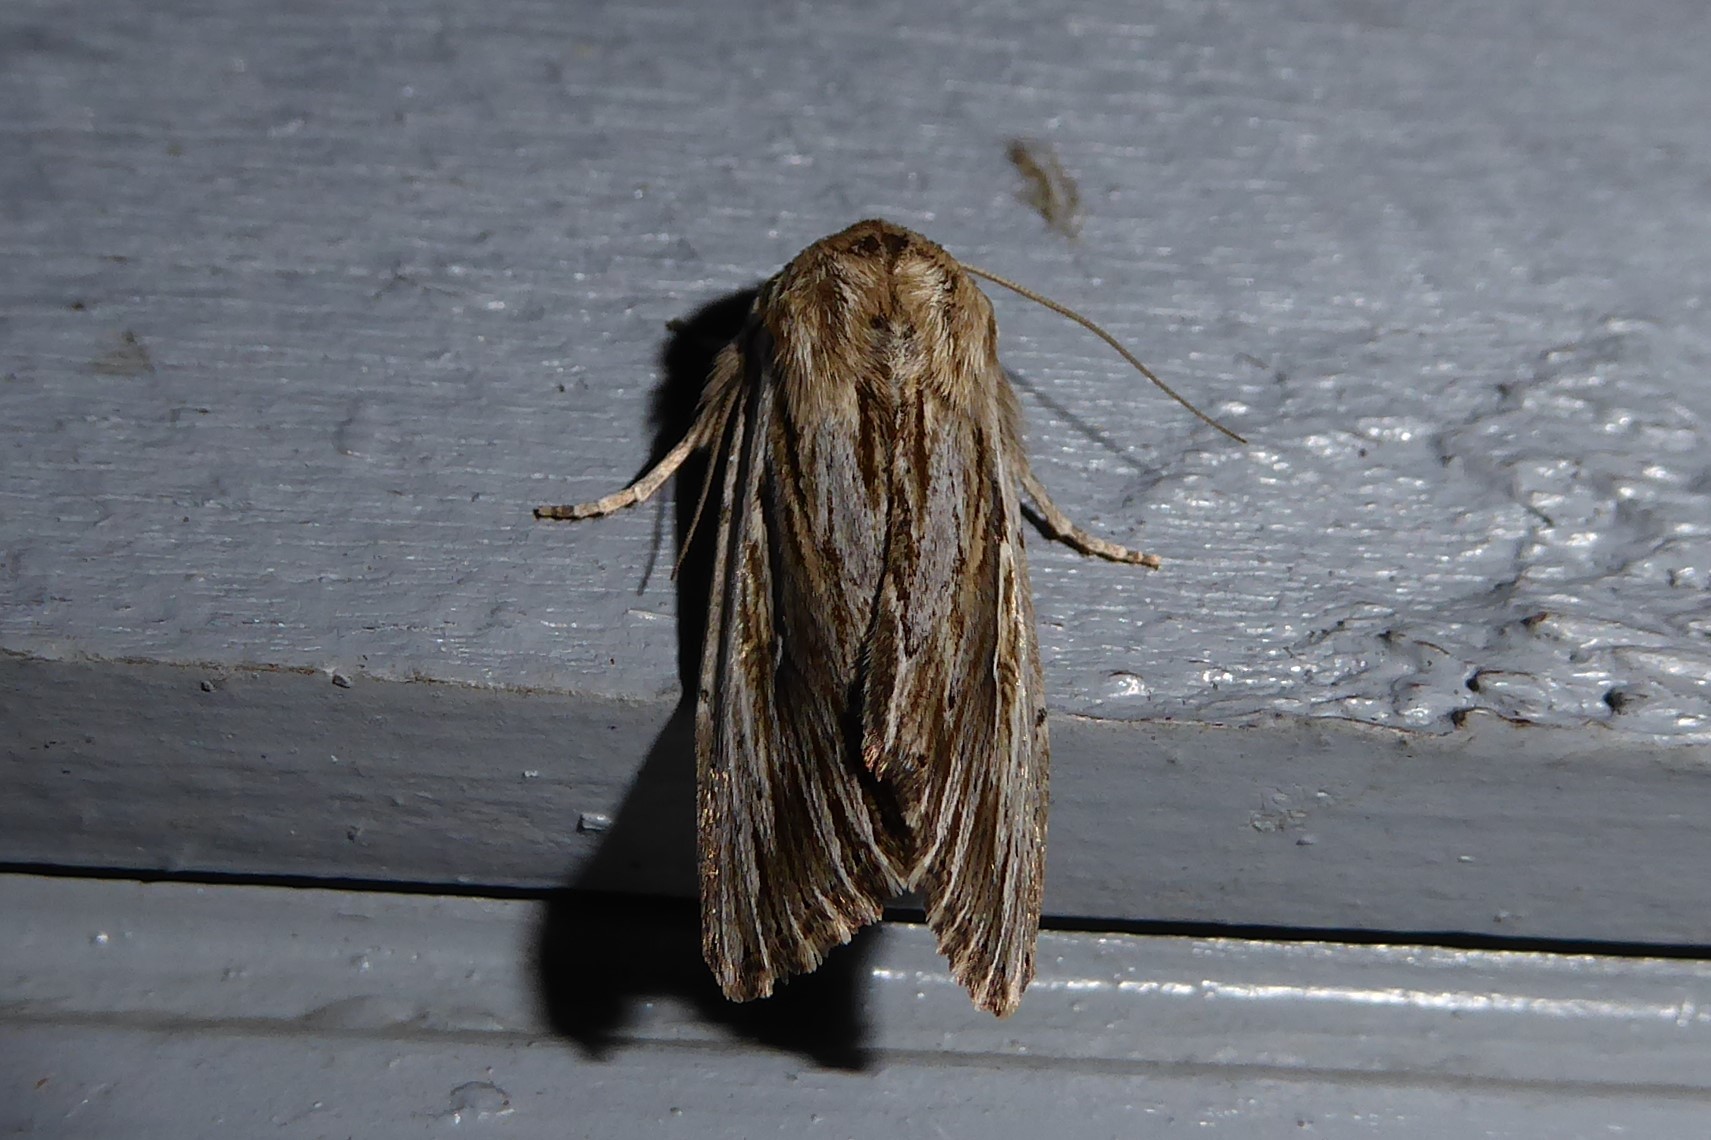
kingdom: Animalia
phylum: Arthropoda
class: Insecta
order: Lepidoptera
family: Noctuidae
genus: Persectania
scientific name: Persectania aversa
